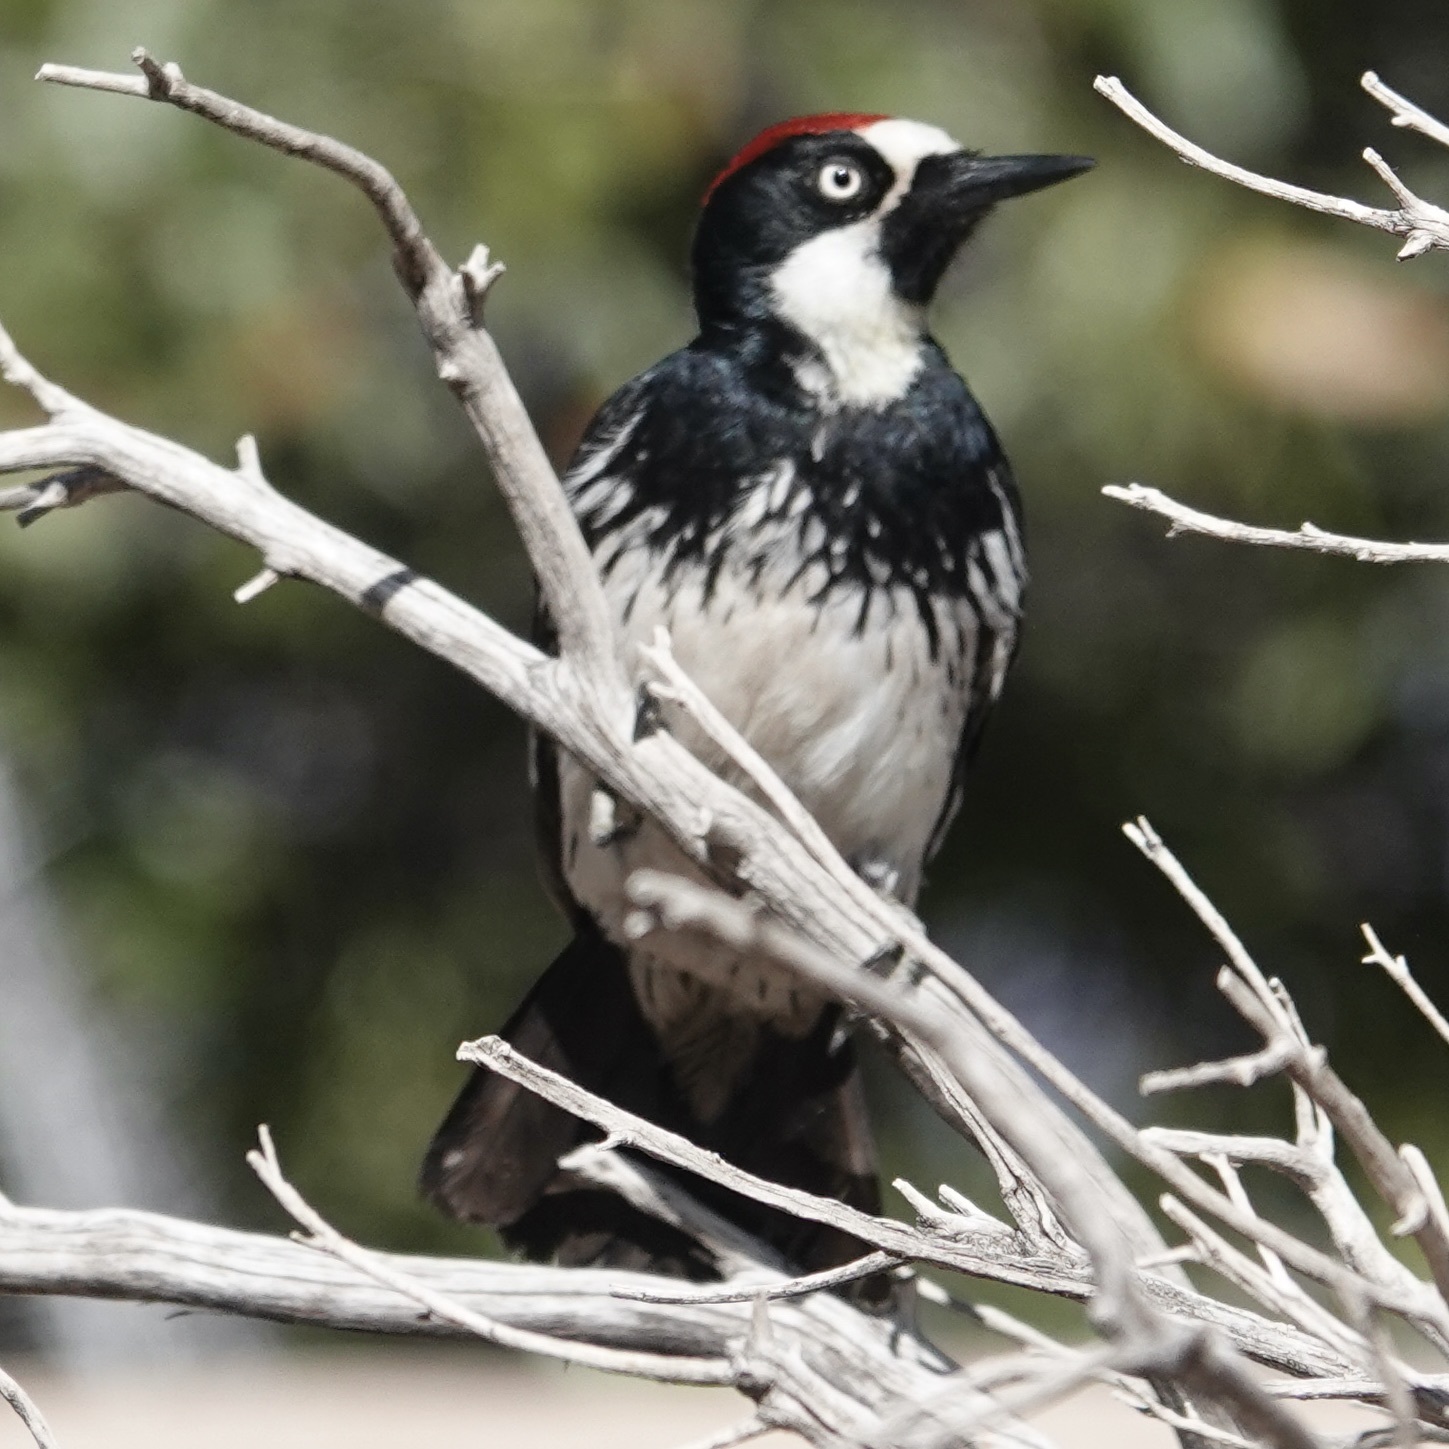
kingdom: Animalia
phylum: Chordata
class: Aves
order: Piciformes
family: Picidae
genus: Melanerpes
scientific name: Melanerpes formicivorus
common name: Acorn woodpecker
